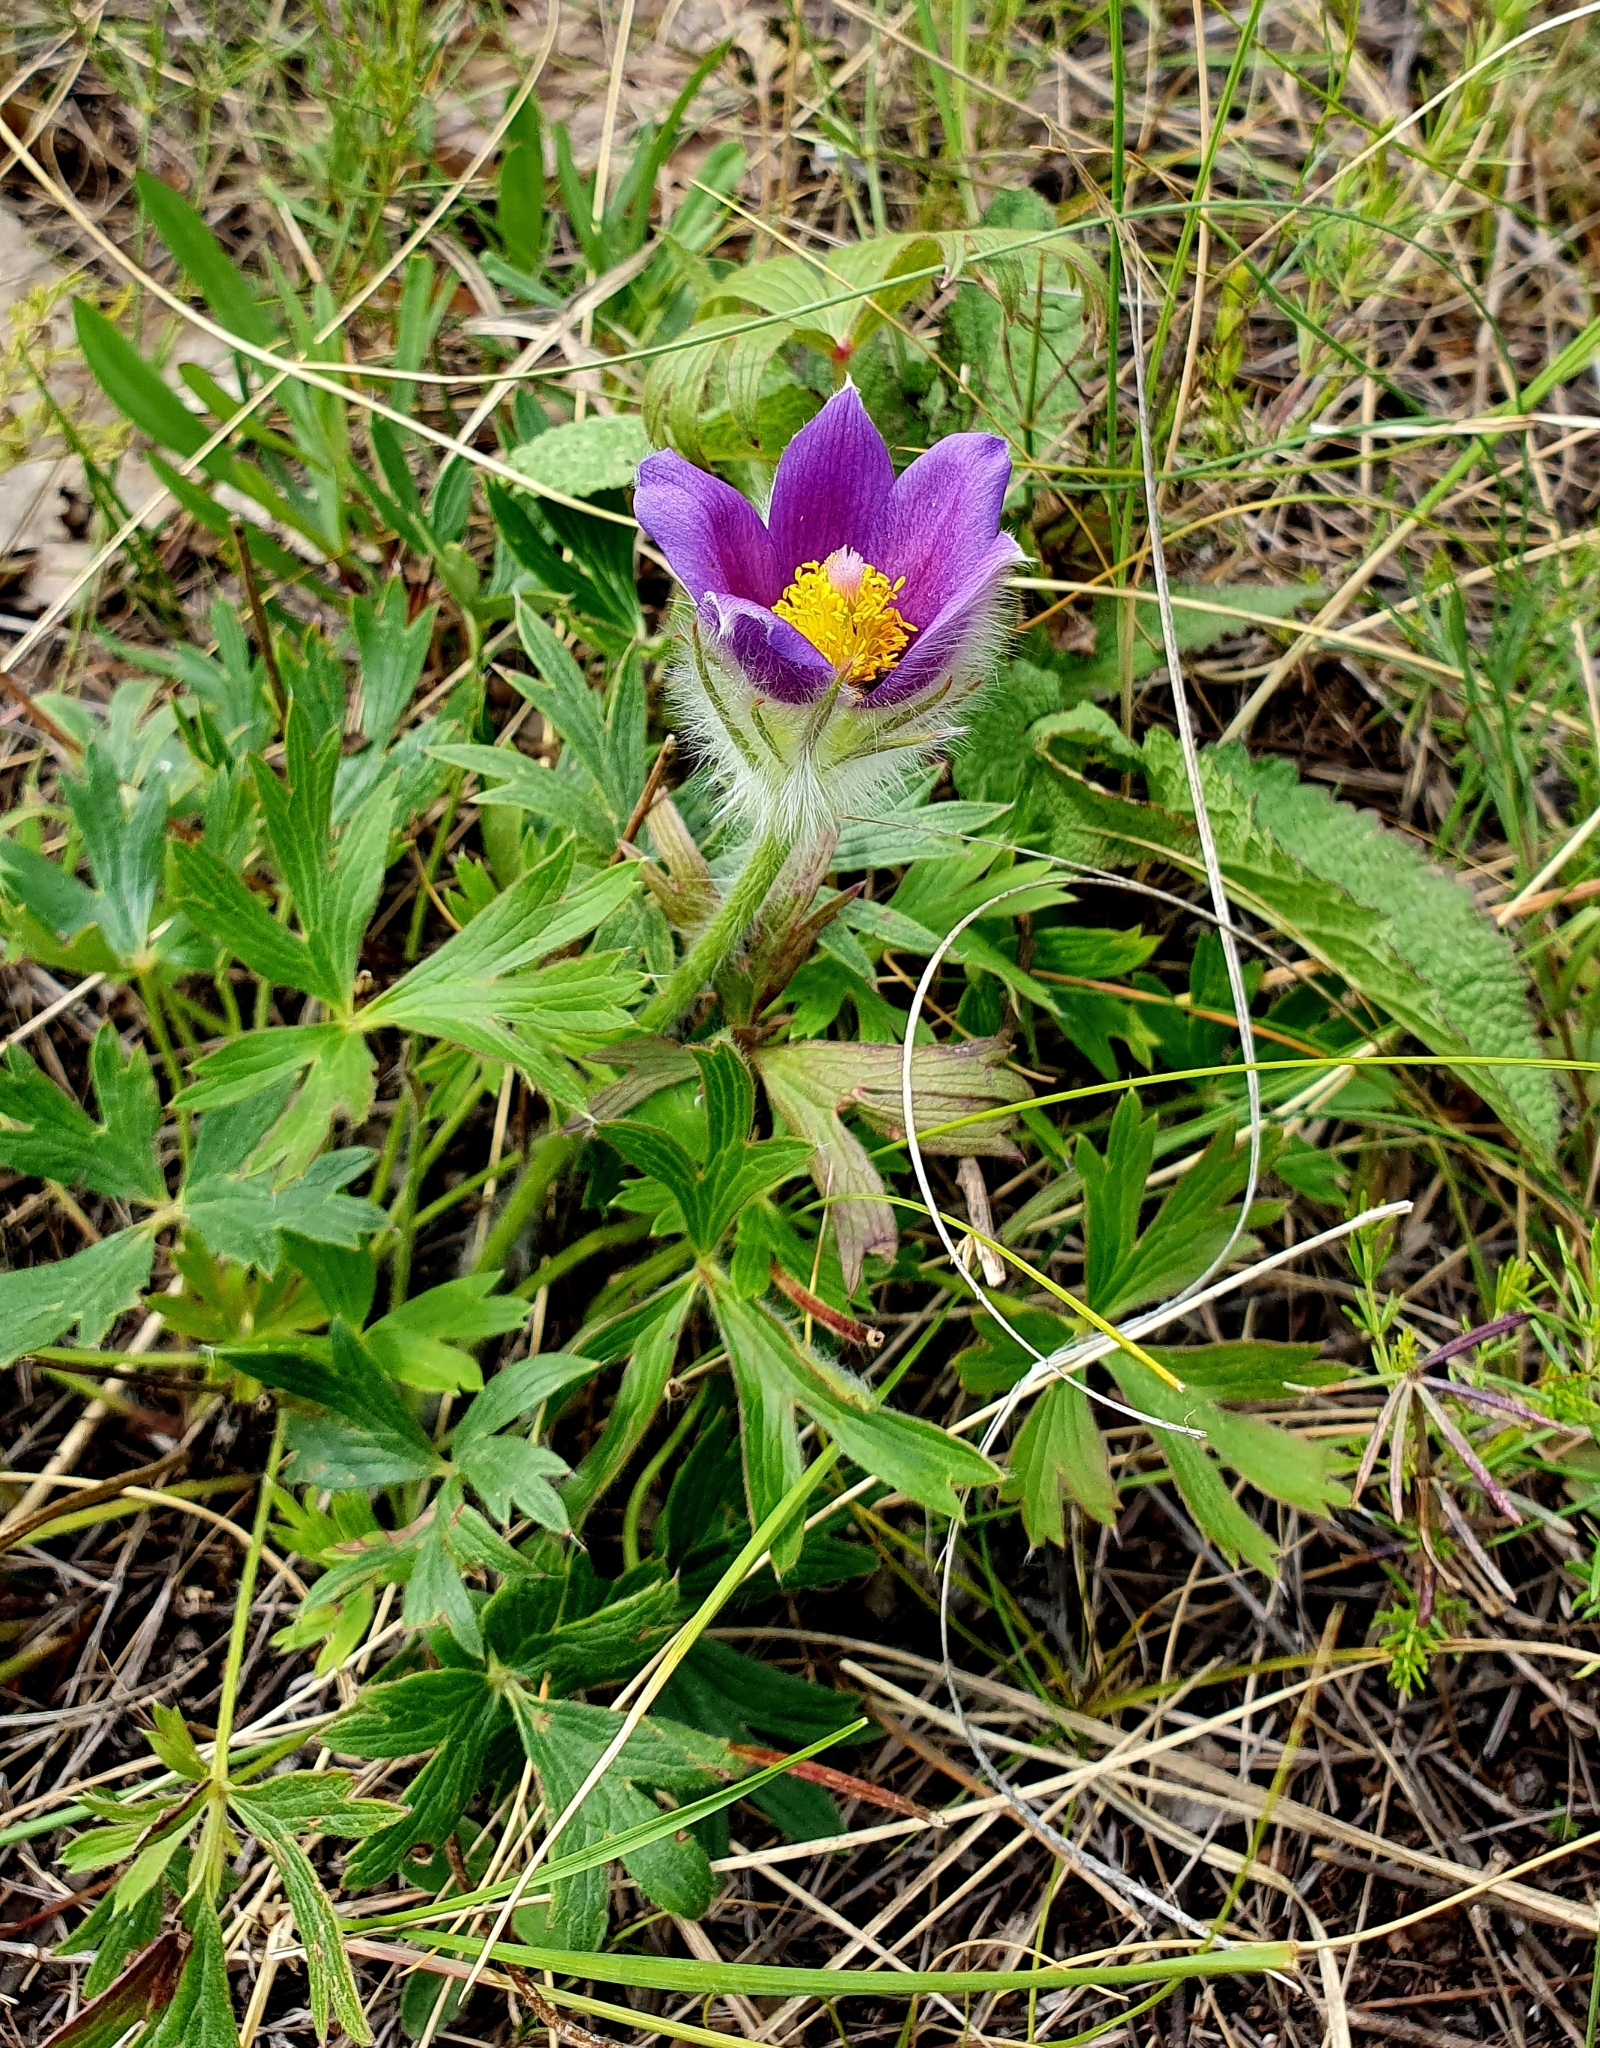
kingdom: Plantae
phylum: Tracheophyta
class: Magnoliopsida
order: Ranunculales
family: Ranunculaceae
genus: Pulsatilla
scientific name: Pulsatilla patens
